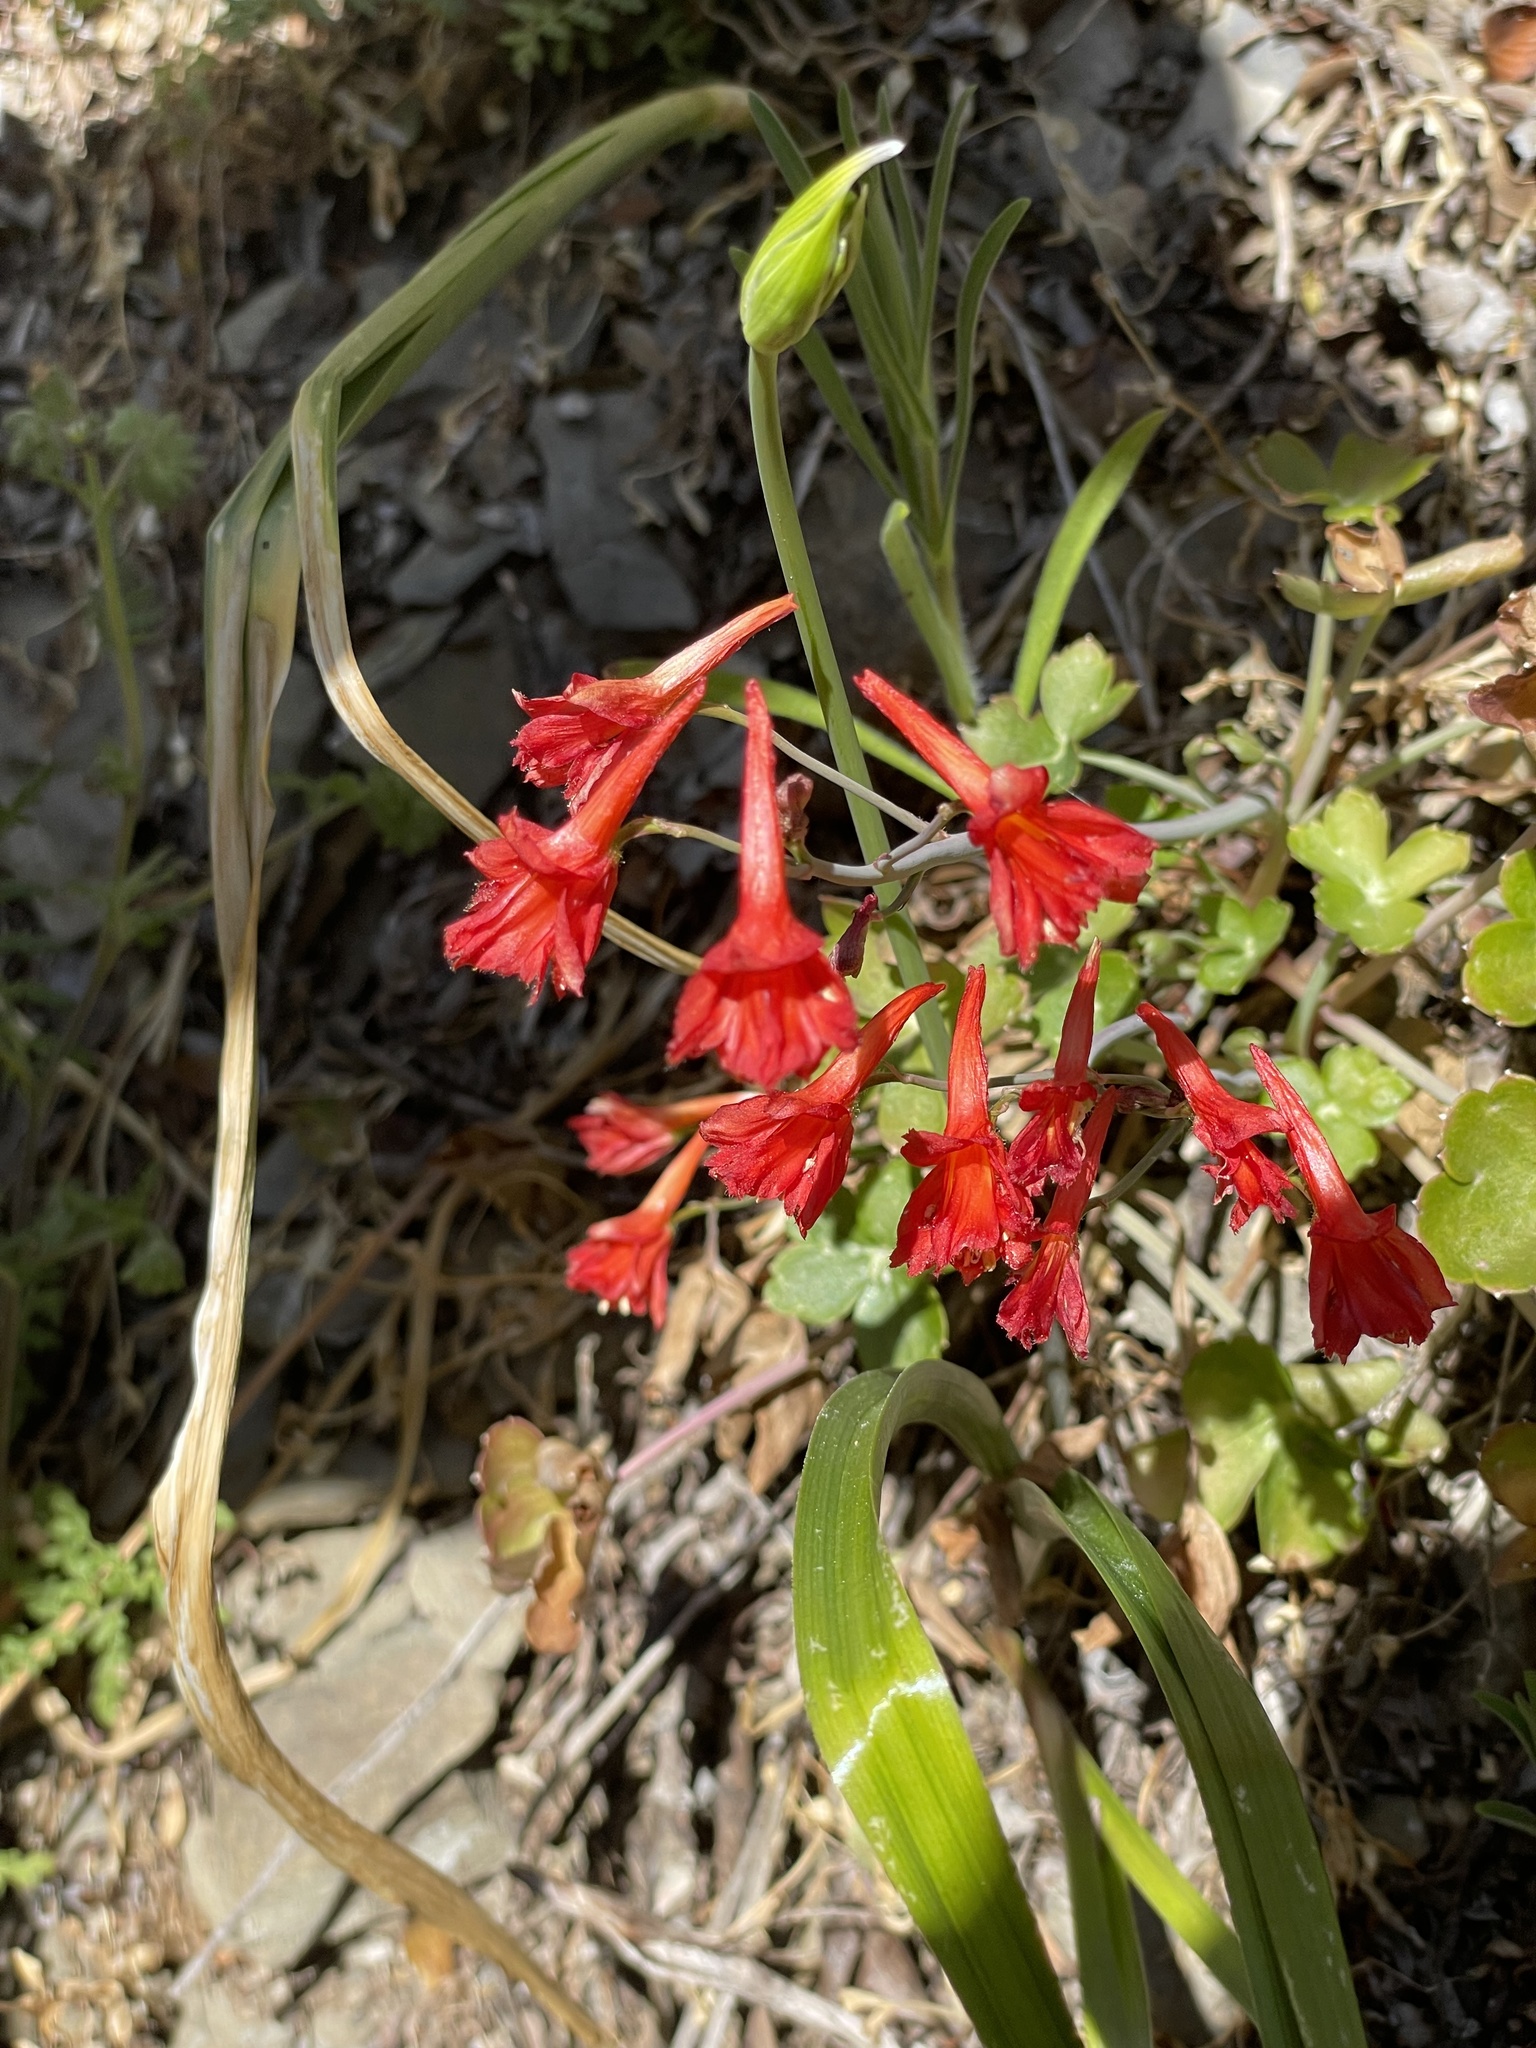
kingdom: Plantae
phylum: Tracheophyta
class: Magnoliopsida
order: Ranunculales
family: Ranunculaceae
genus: Delphinium
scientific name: Delphinium nudicaule
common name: Red larkspur
